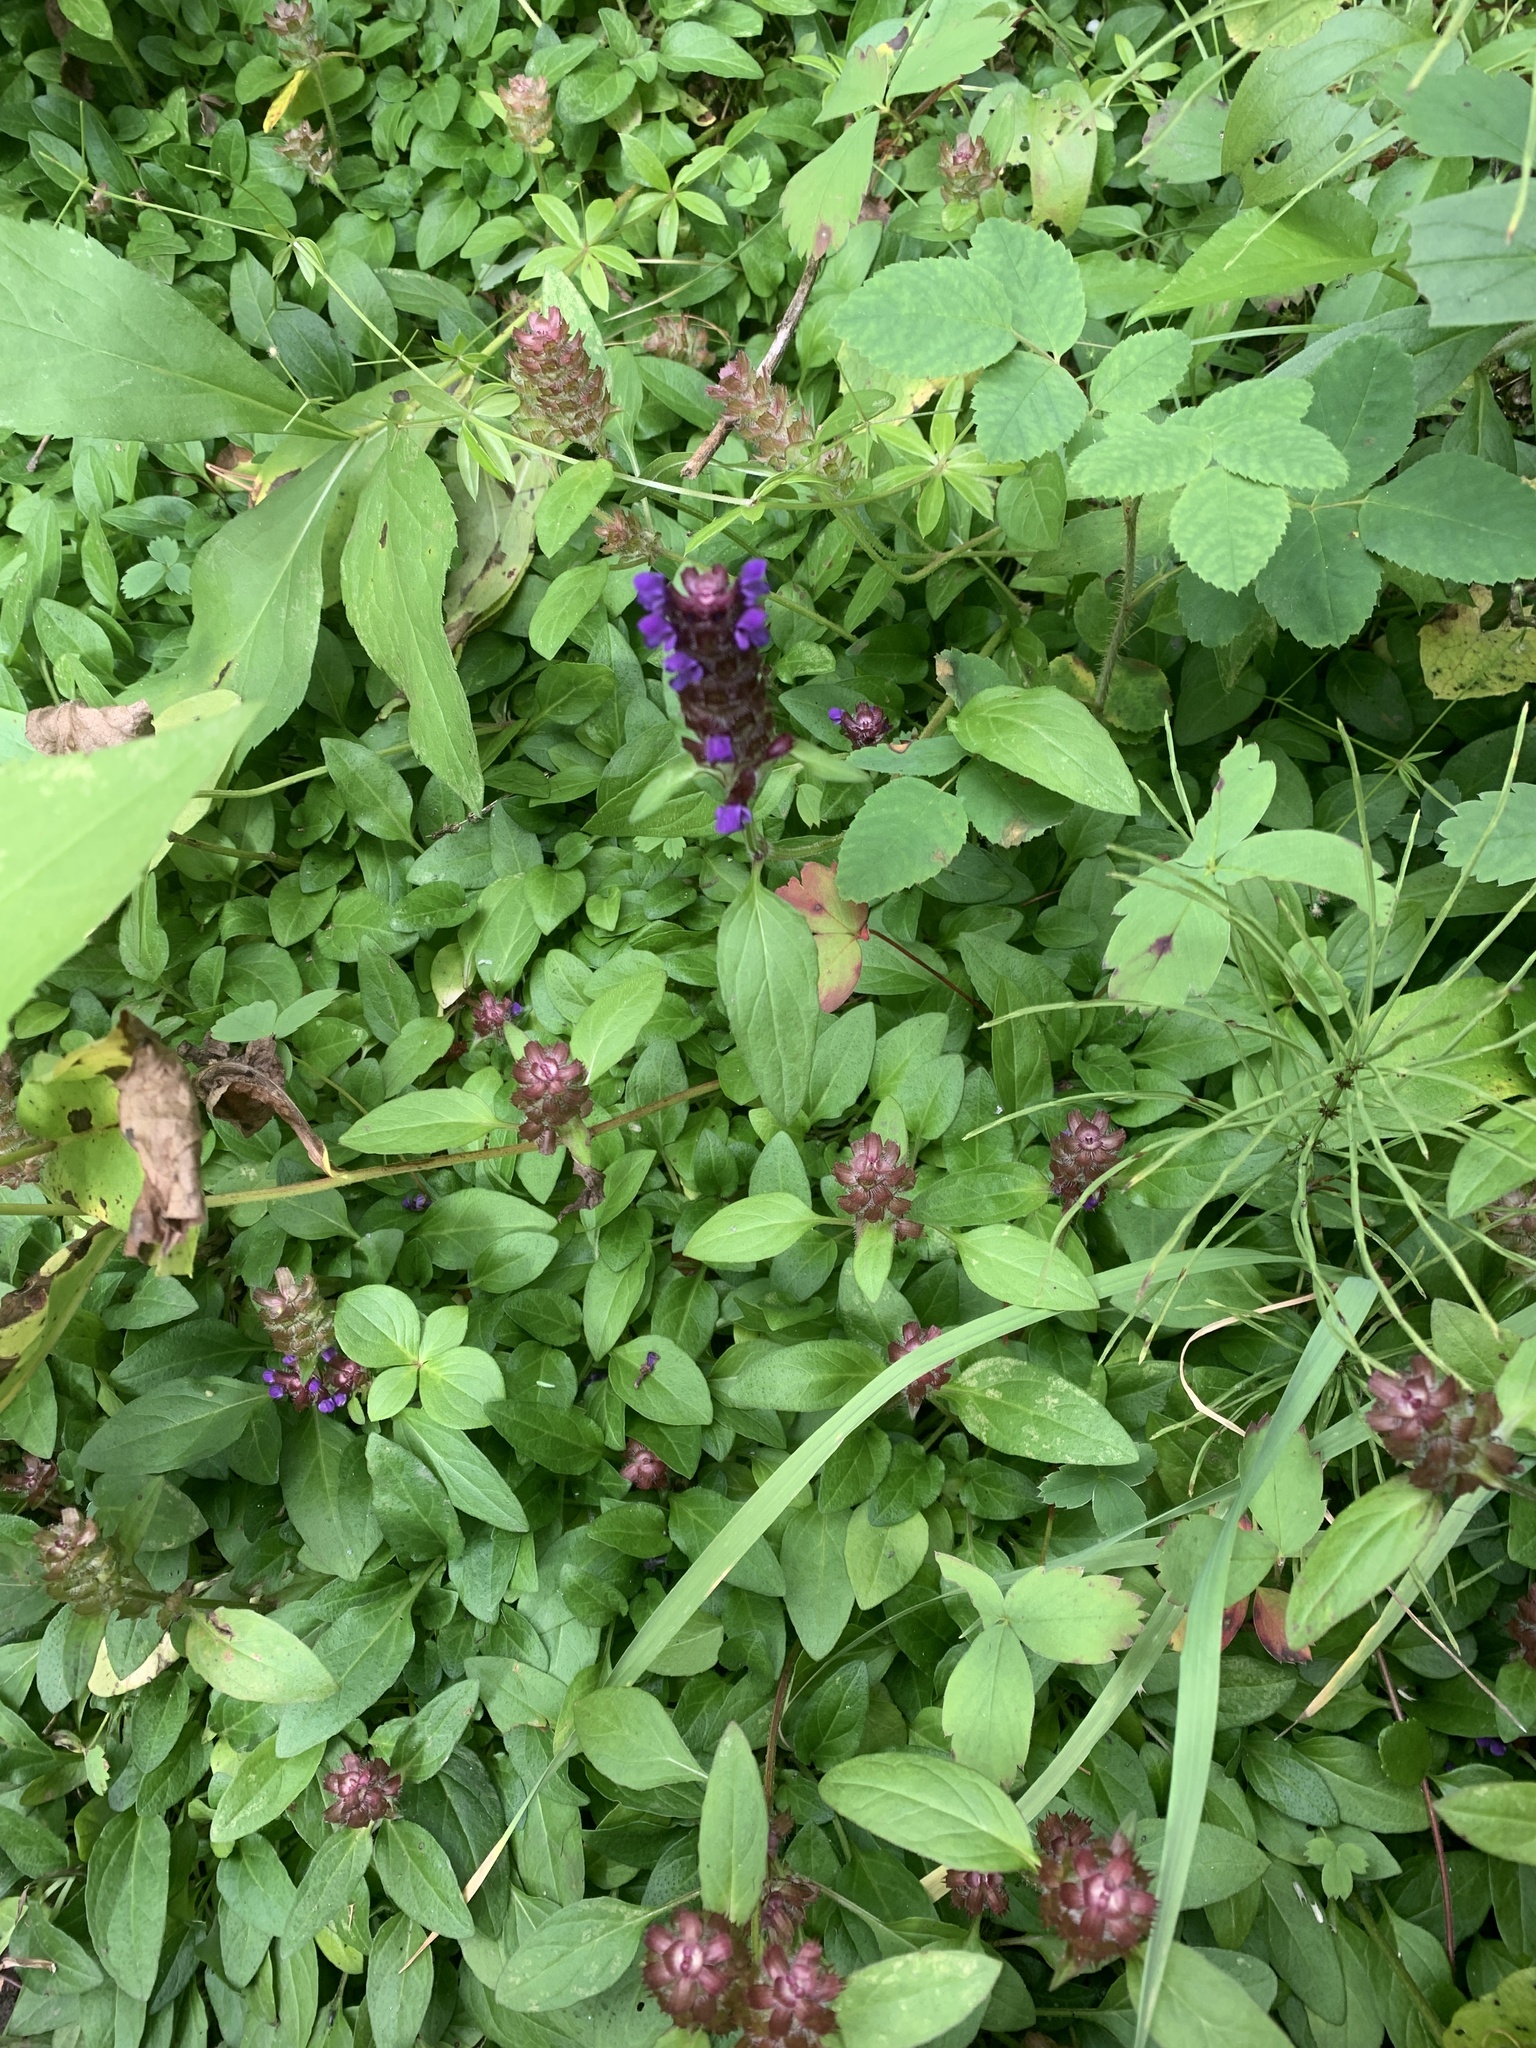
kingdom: Plantae
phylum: Tracheophyta
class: Magnoliopsida
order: Lamiales
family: Lamiaceae
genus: Prunella
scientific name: Prunella vulgaris
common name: Heal-all
